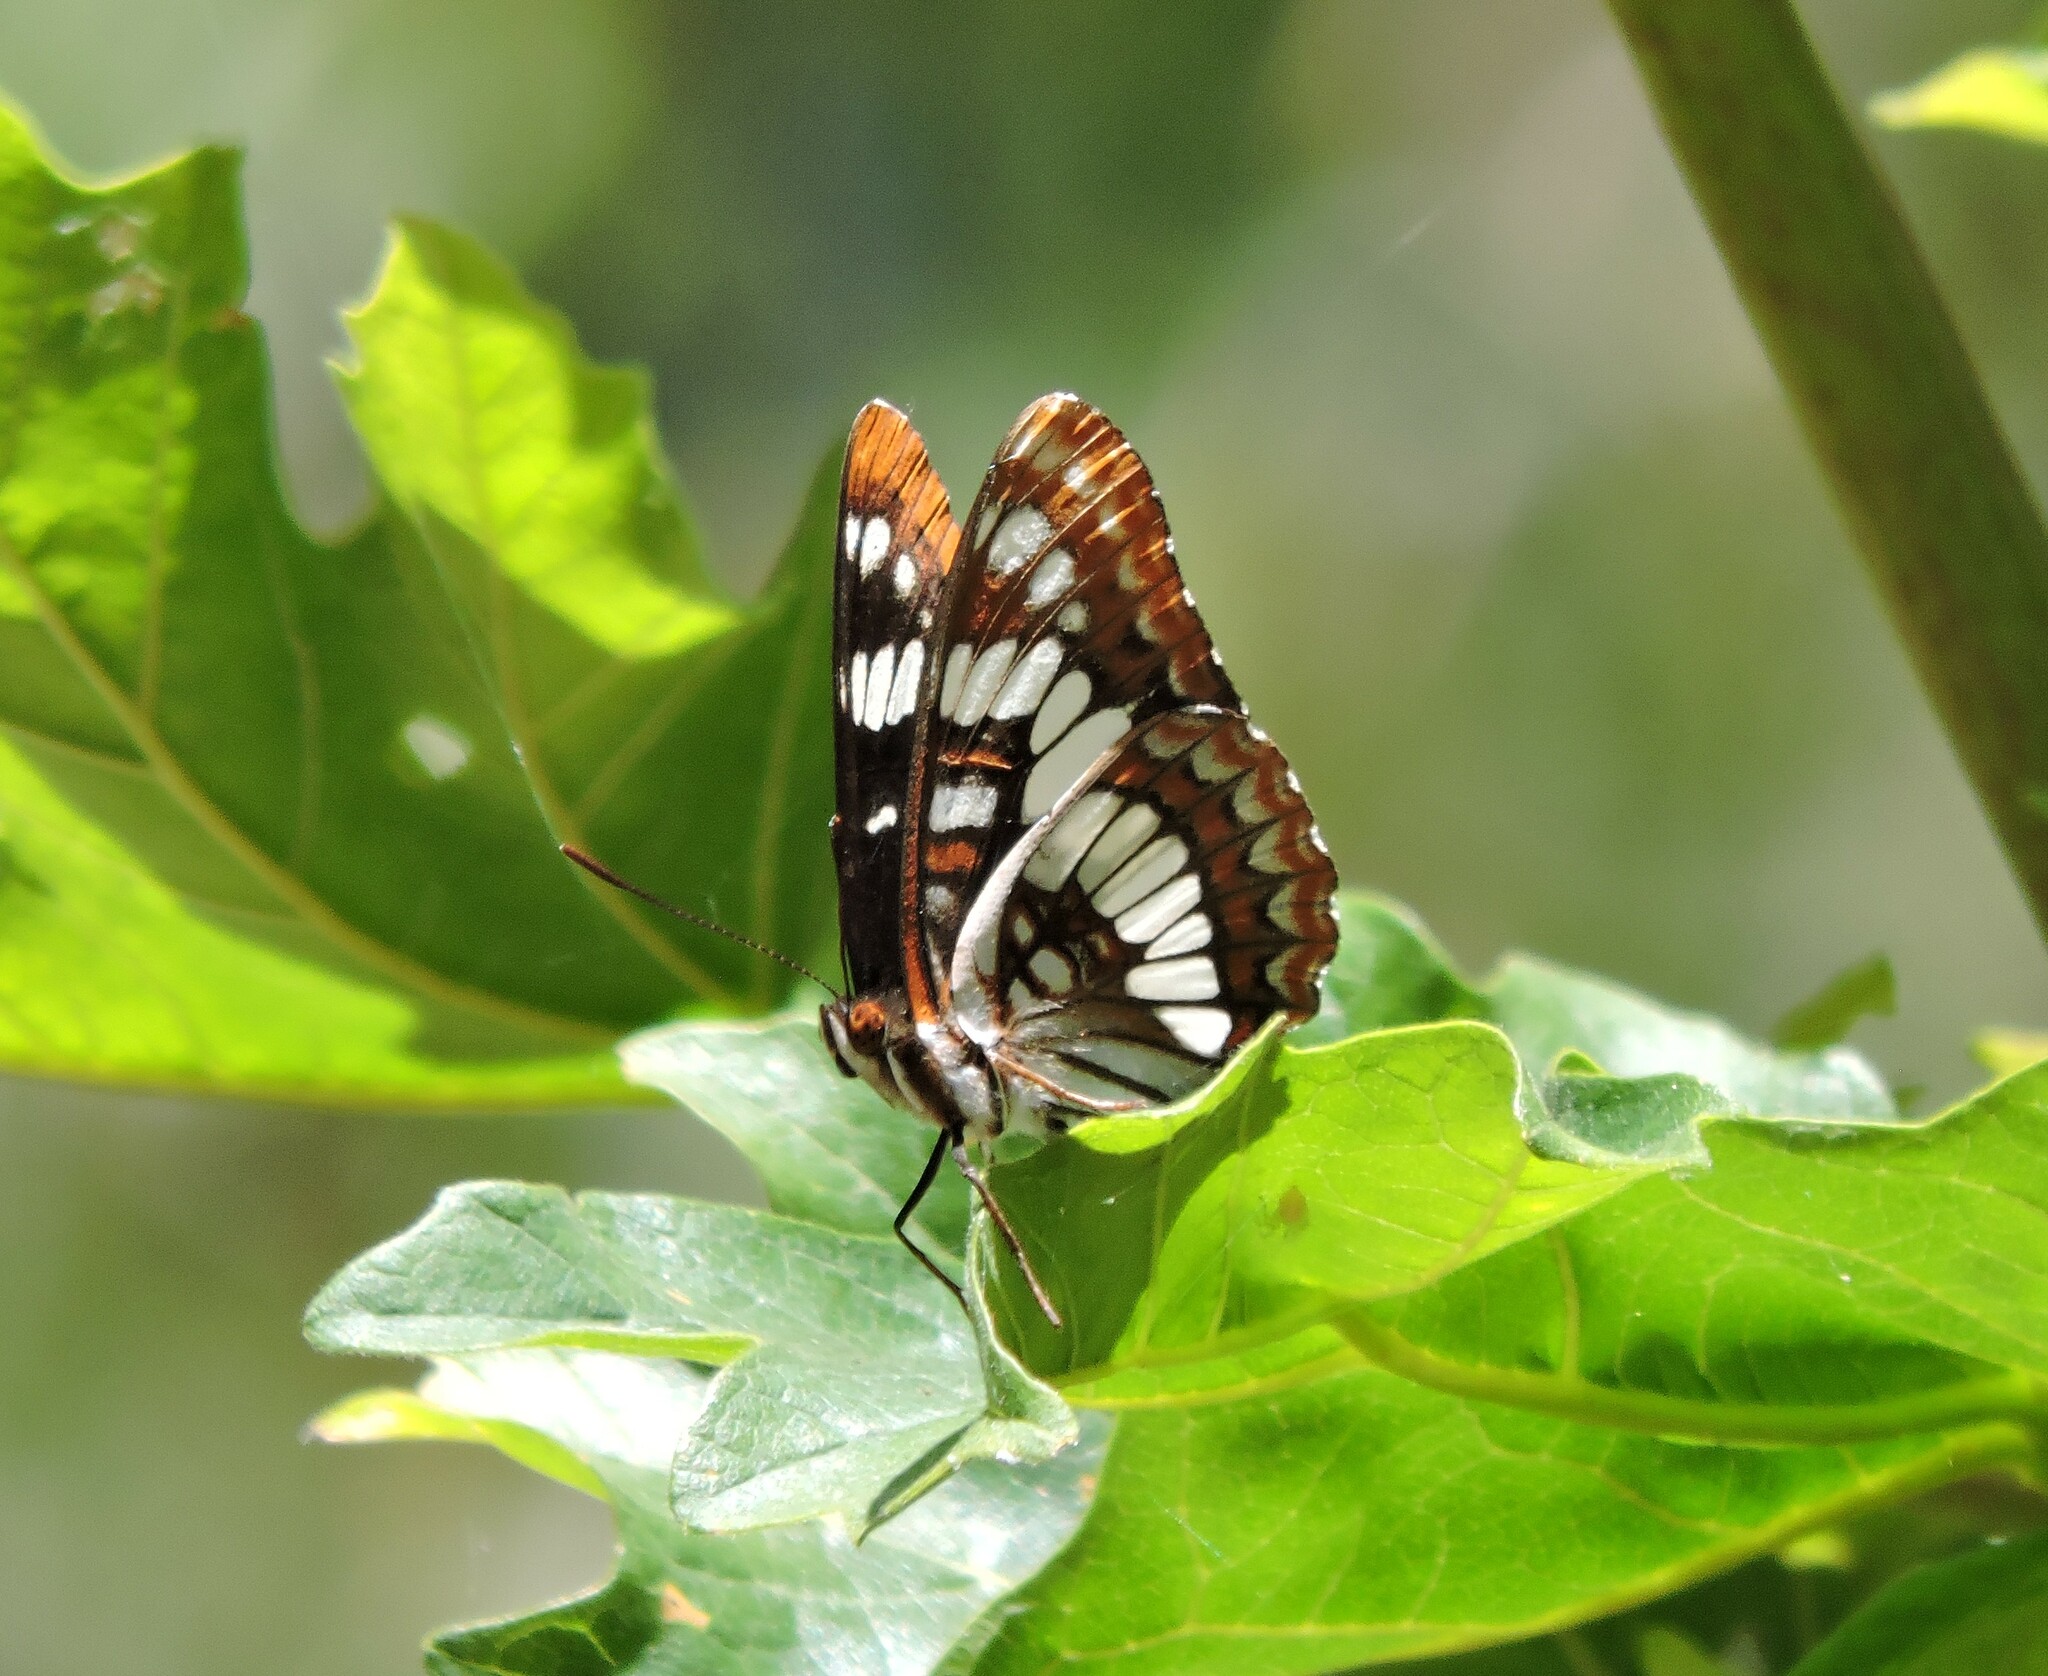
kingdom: Animalia
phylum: Arthropoda
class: Insecta
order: Lepidoptera
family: Nymphalidae
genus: Limenitis
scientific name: Limenitis lorquini
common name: Lorquin's admiral
